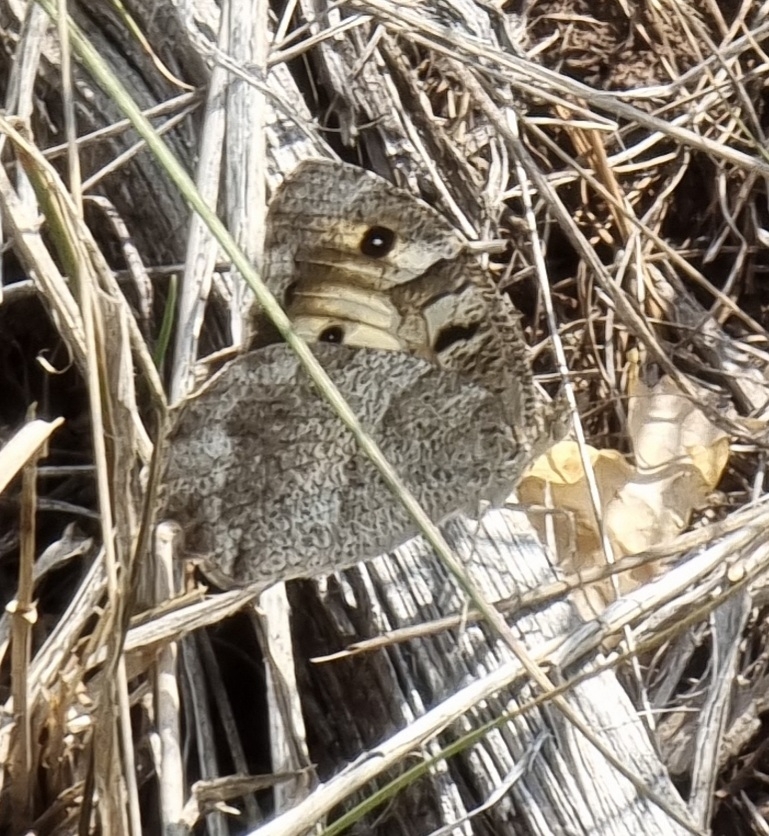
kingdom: Animalia
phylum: Arthropoda
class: Insecta
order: Lepidoptera
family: Nymphalidae
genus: Satyrus
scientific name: Satyrus briseis
